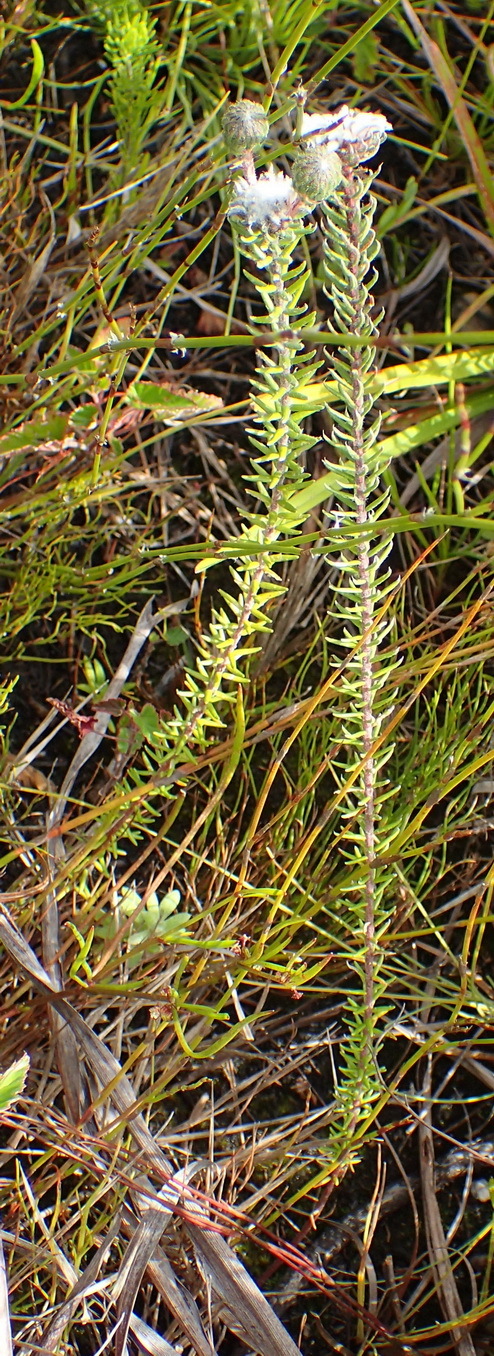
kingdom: Plantae
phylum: Tracheophyta
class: Magnoliopsida
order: Rosales
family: Rhamnaceae
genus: Phylica
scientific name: Phylica curvifolia
